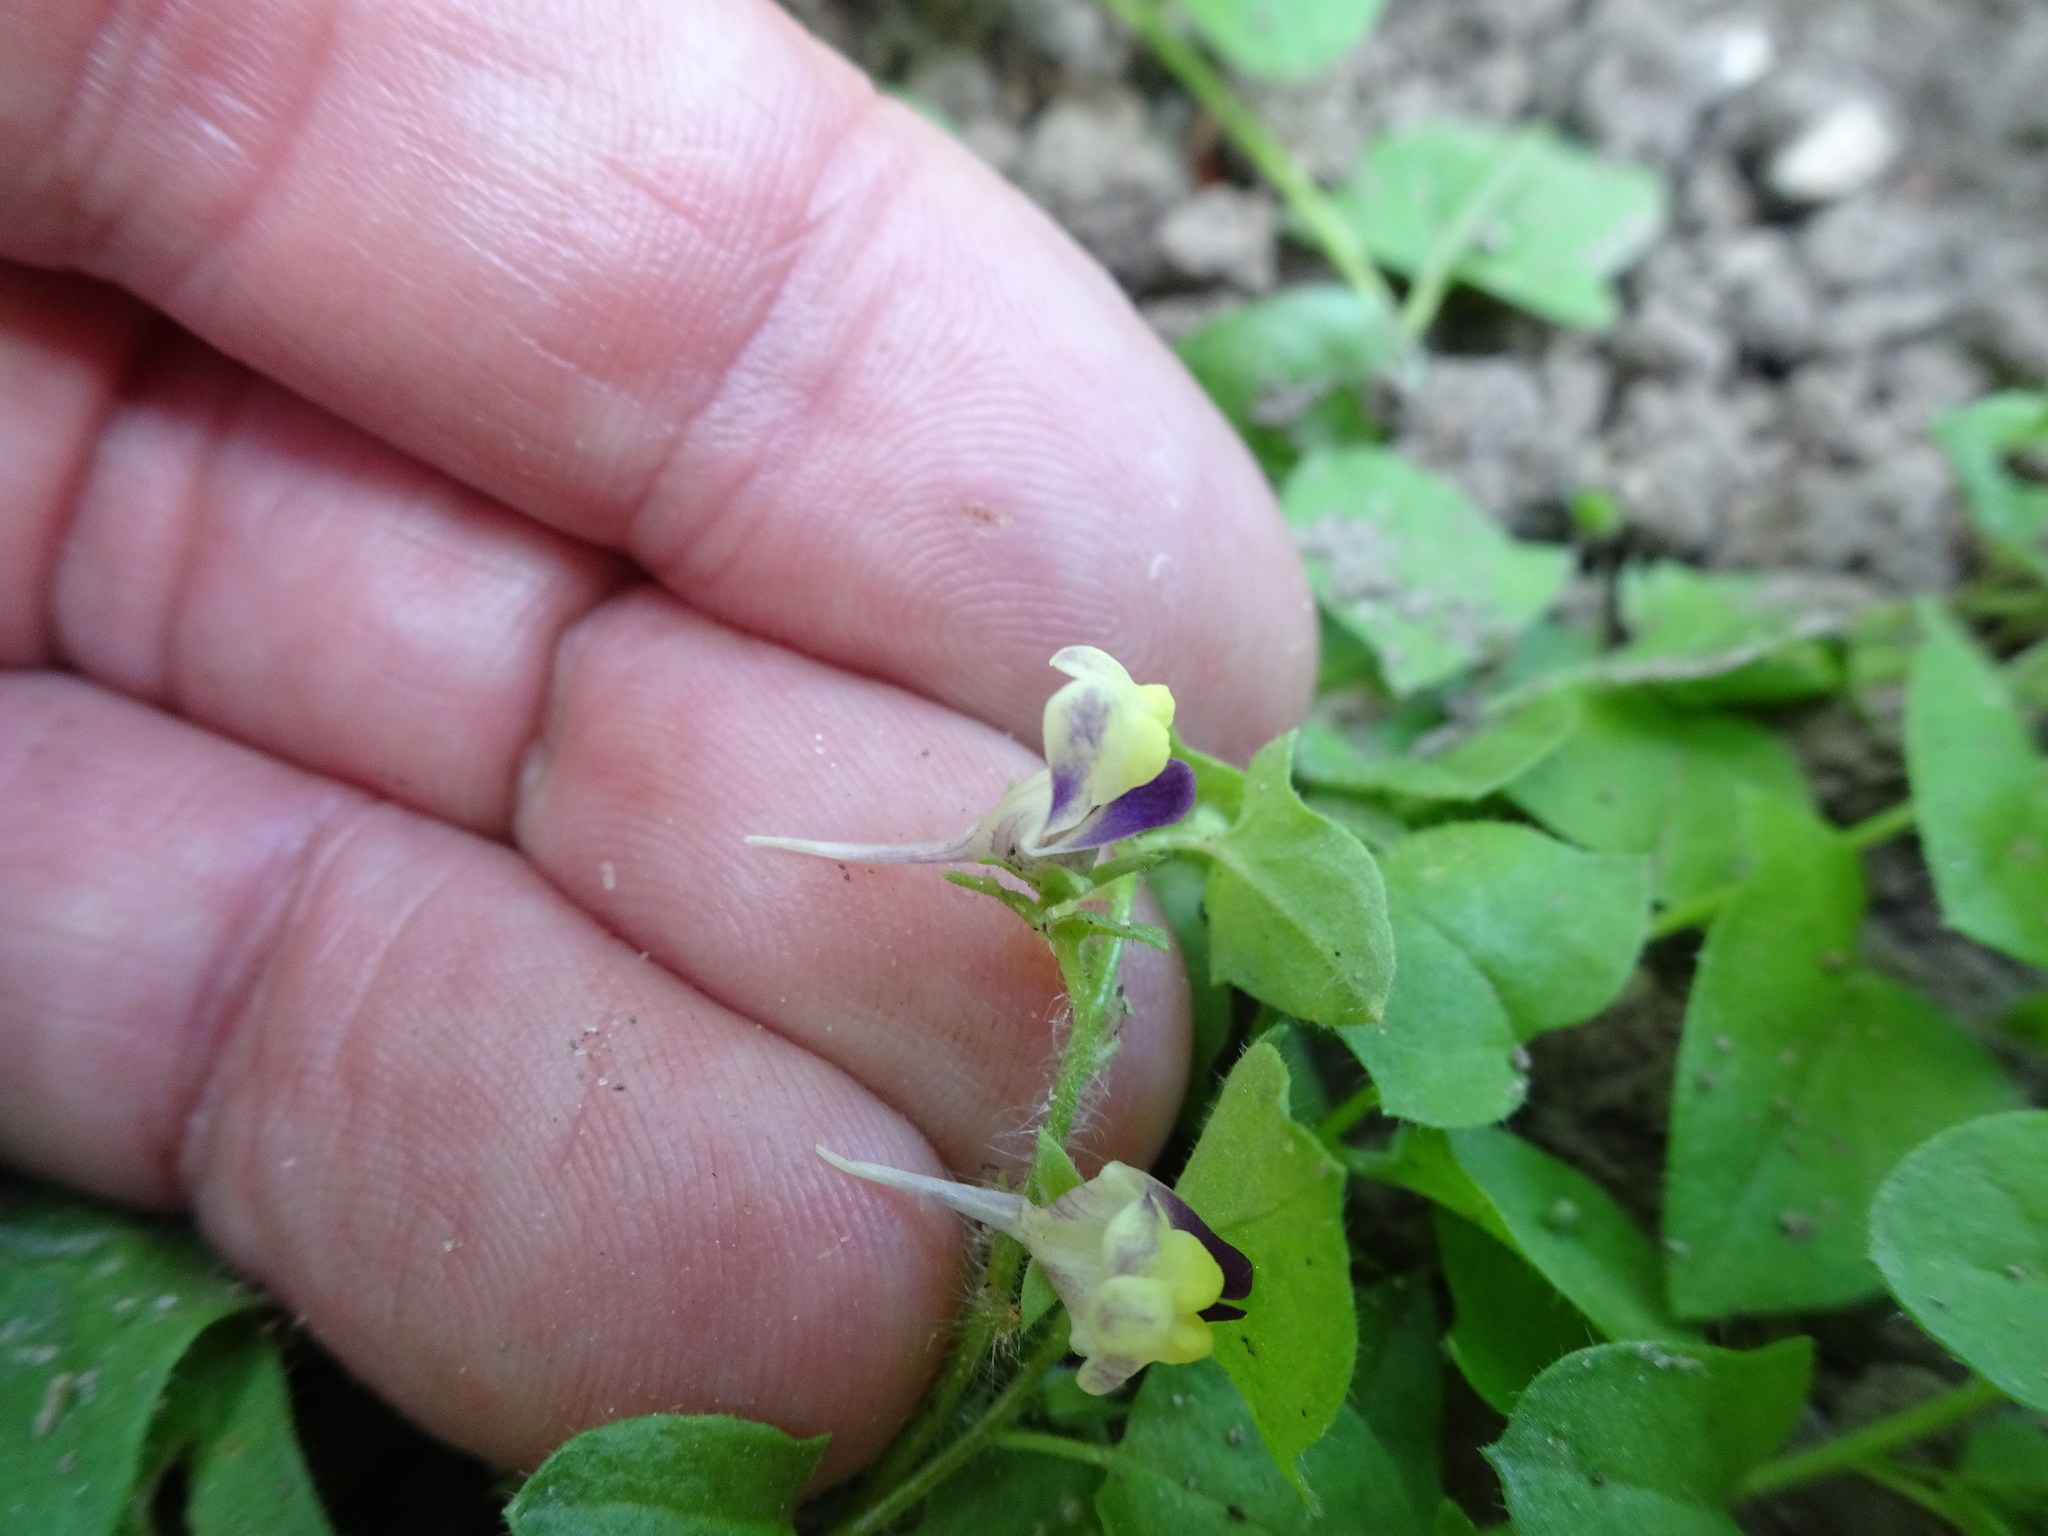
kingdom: Plantae
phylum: Tracheophyta
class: Magnoliopsida
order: Lamiales
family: Plantaginaceae
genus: Kickxia
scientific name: Kickxia elatine
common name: Sharp-leaved fluellen
